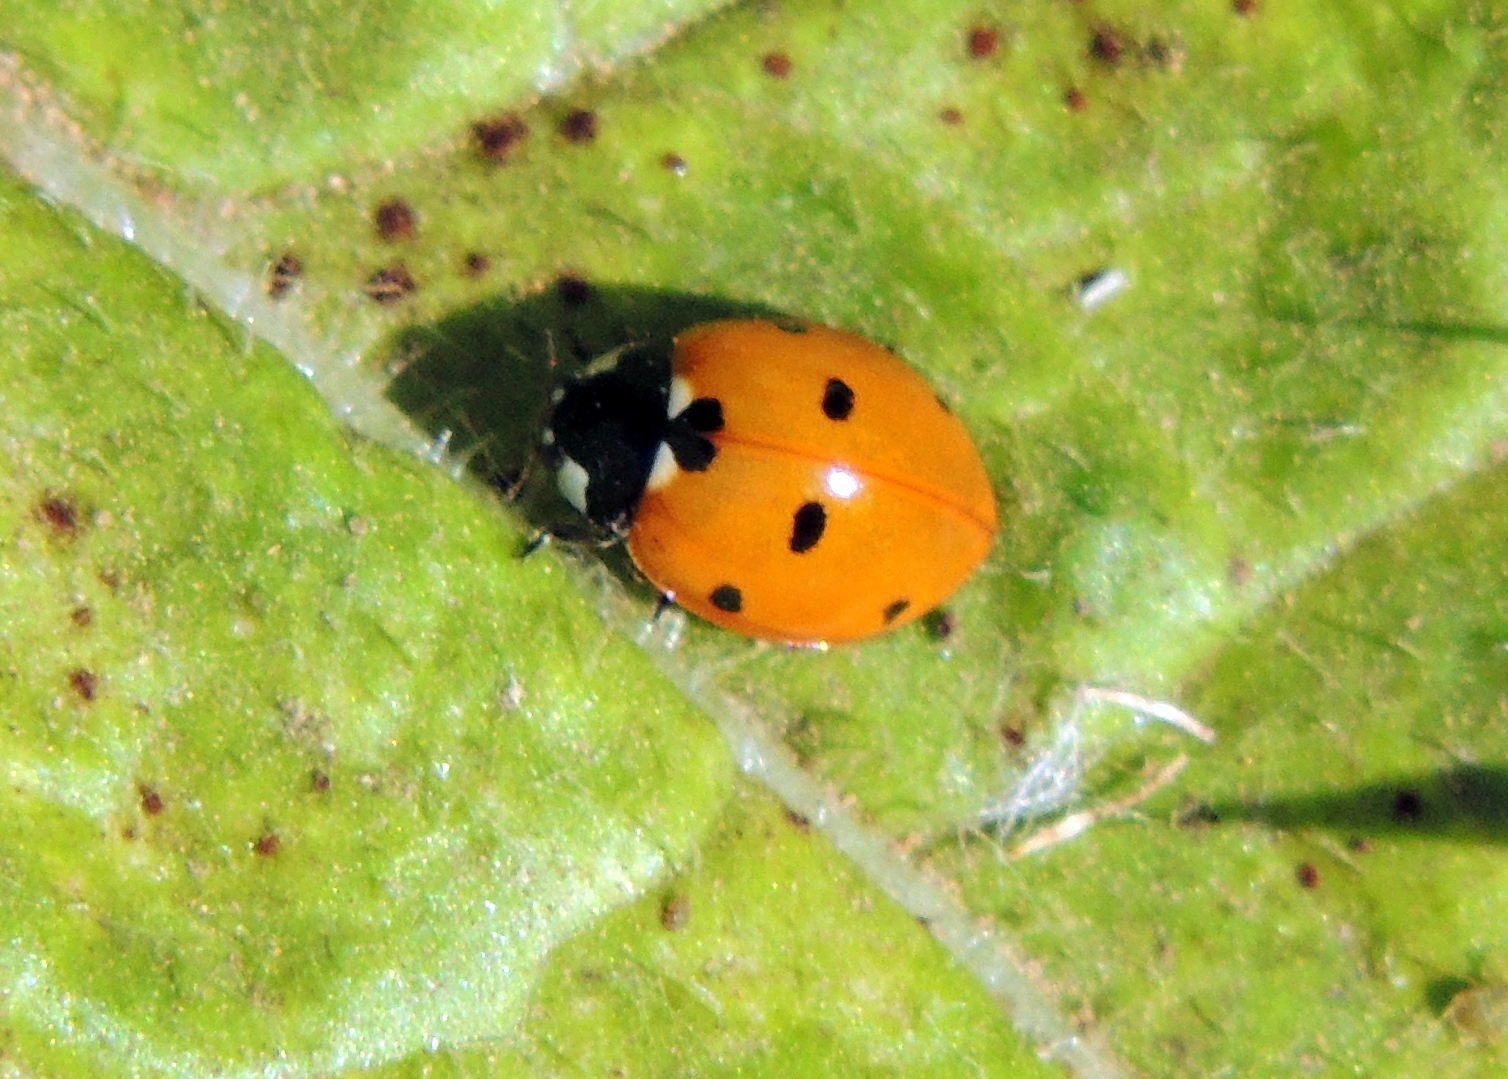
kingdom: Animalia
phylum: Arthropoda
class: Insecta
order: Coleoptera
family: Coccinellidae
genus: Coccinella
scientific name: Coccinella septempunctata
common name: Sevenspotted lady beetle
